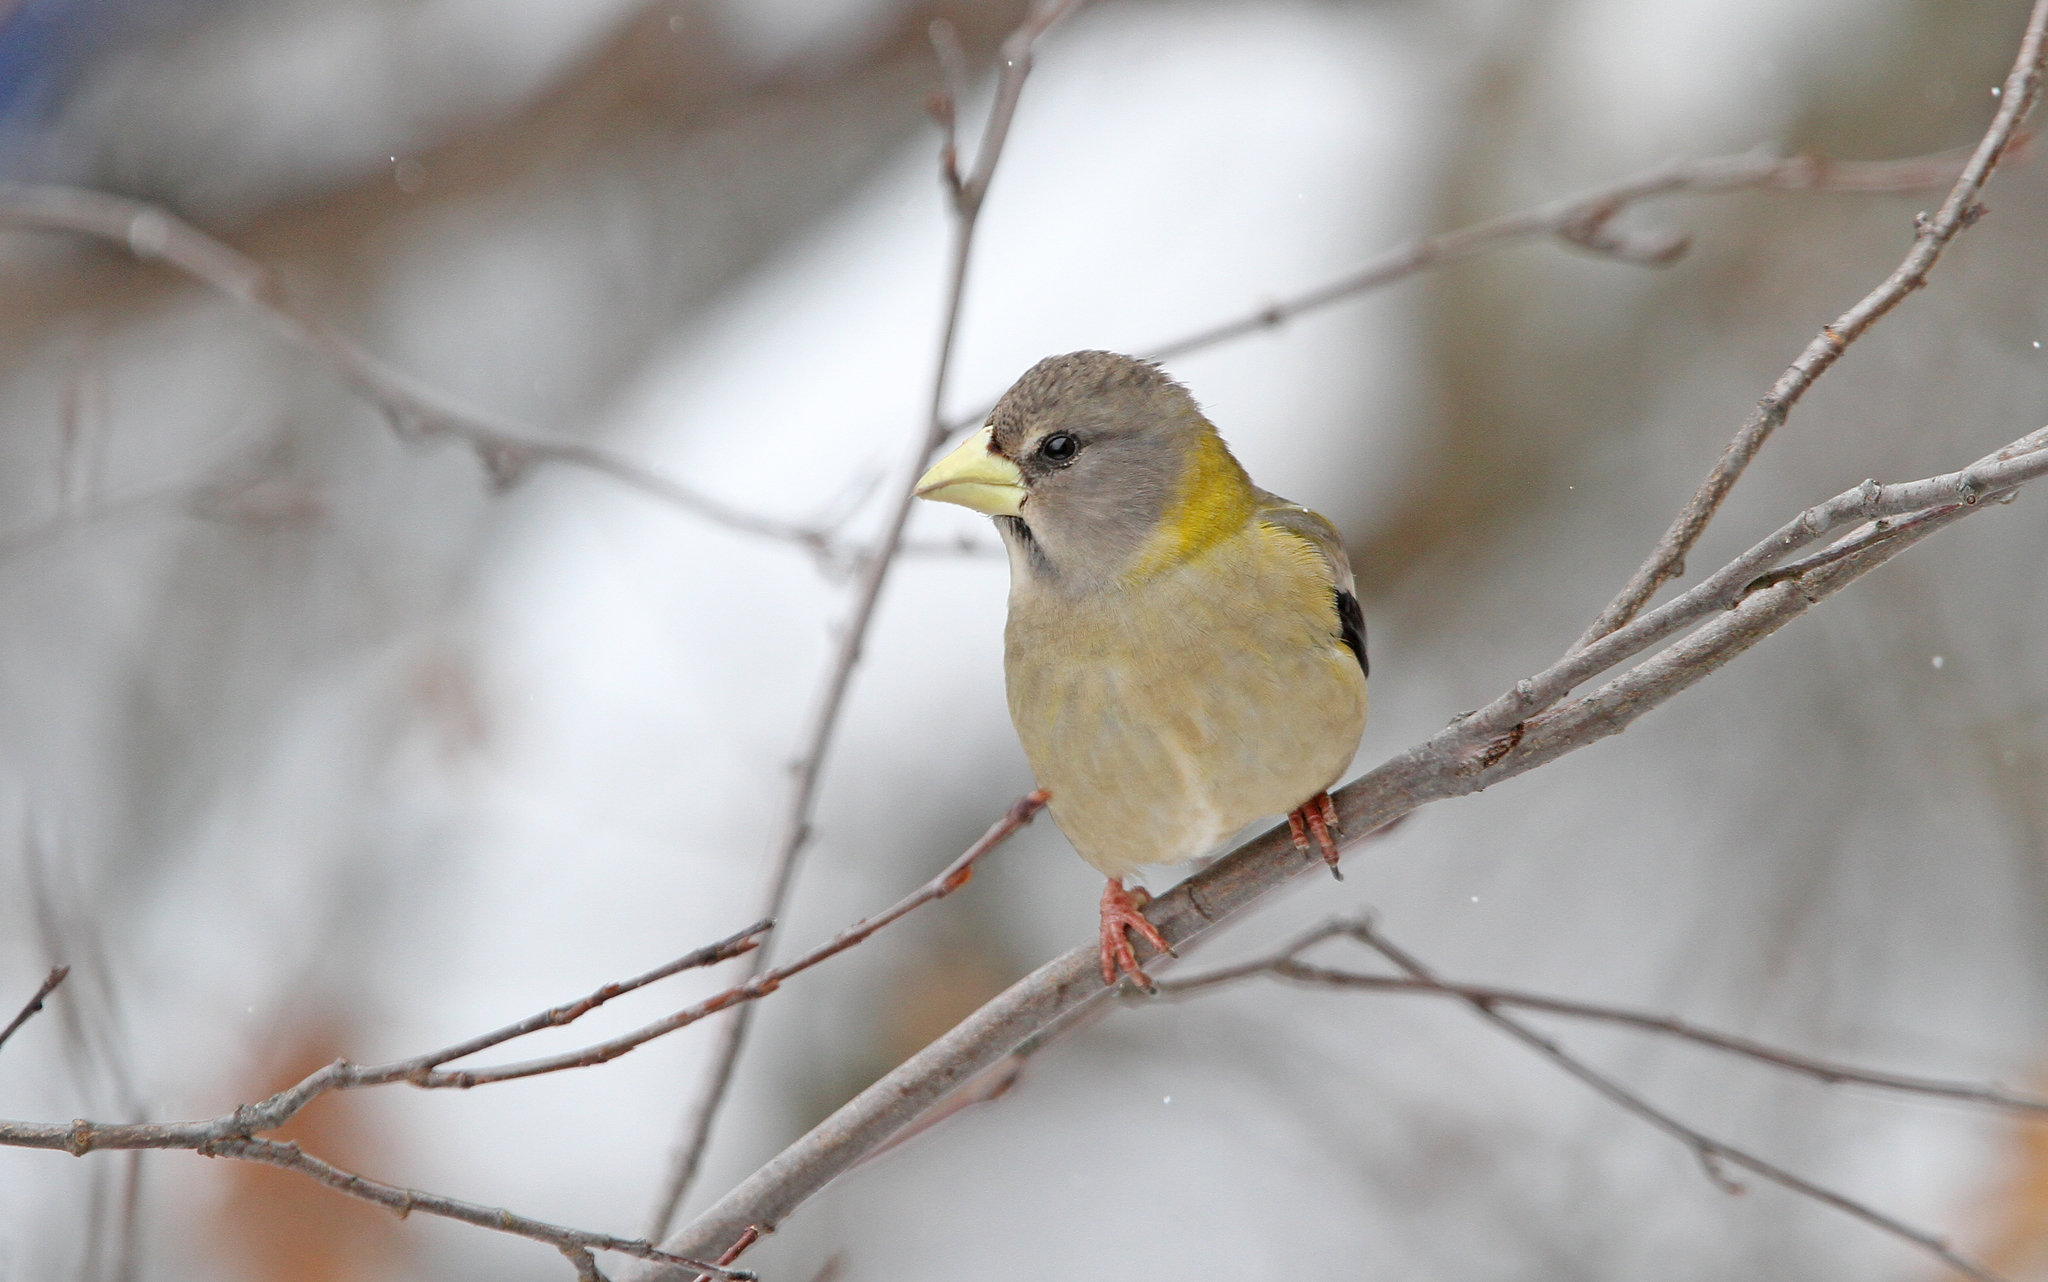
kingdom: Animalia
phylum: Chordata
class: Aves
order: Passeriformes
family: Fringillidae
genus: Hesperiphona
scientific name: Hesperiphona vespertina
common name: Evening grosbeak
